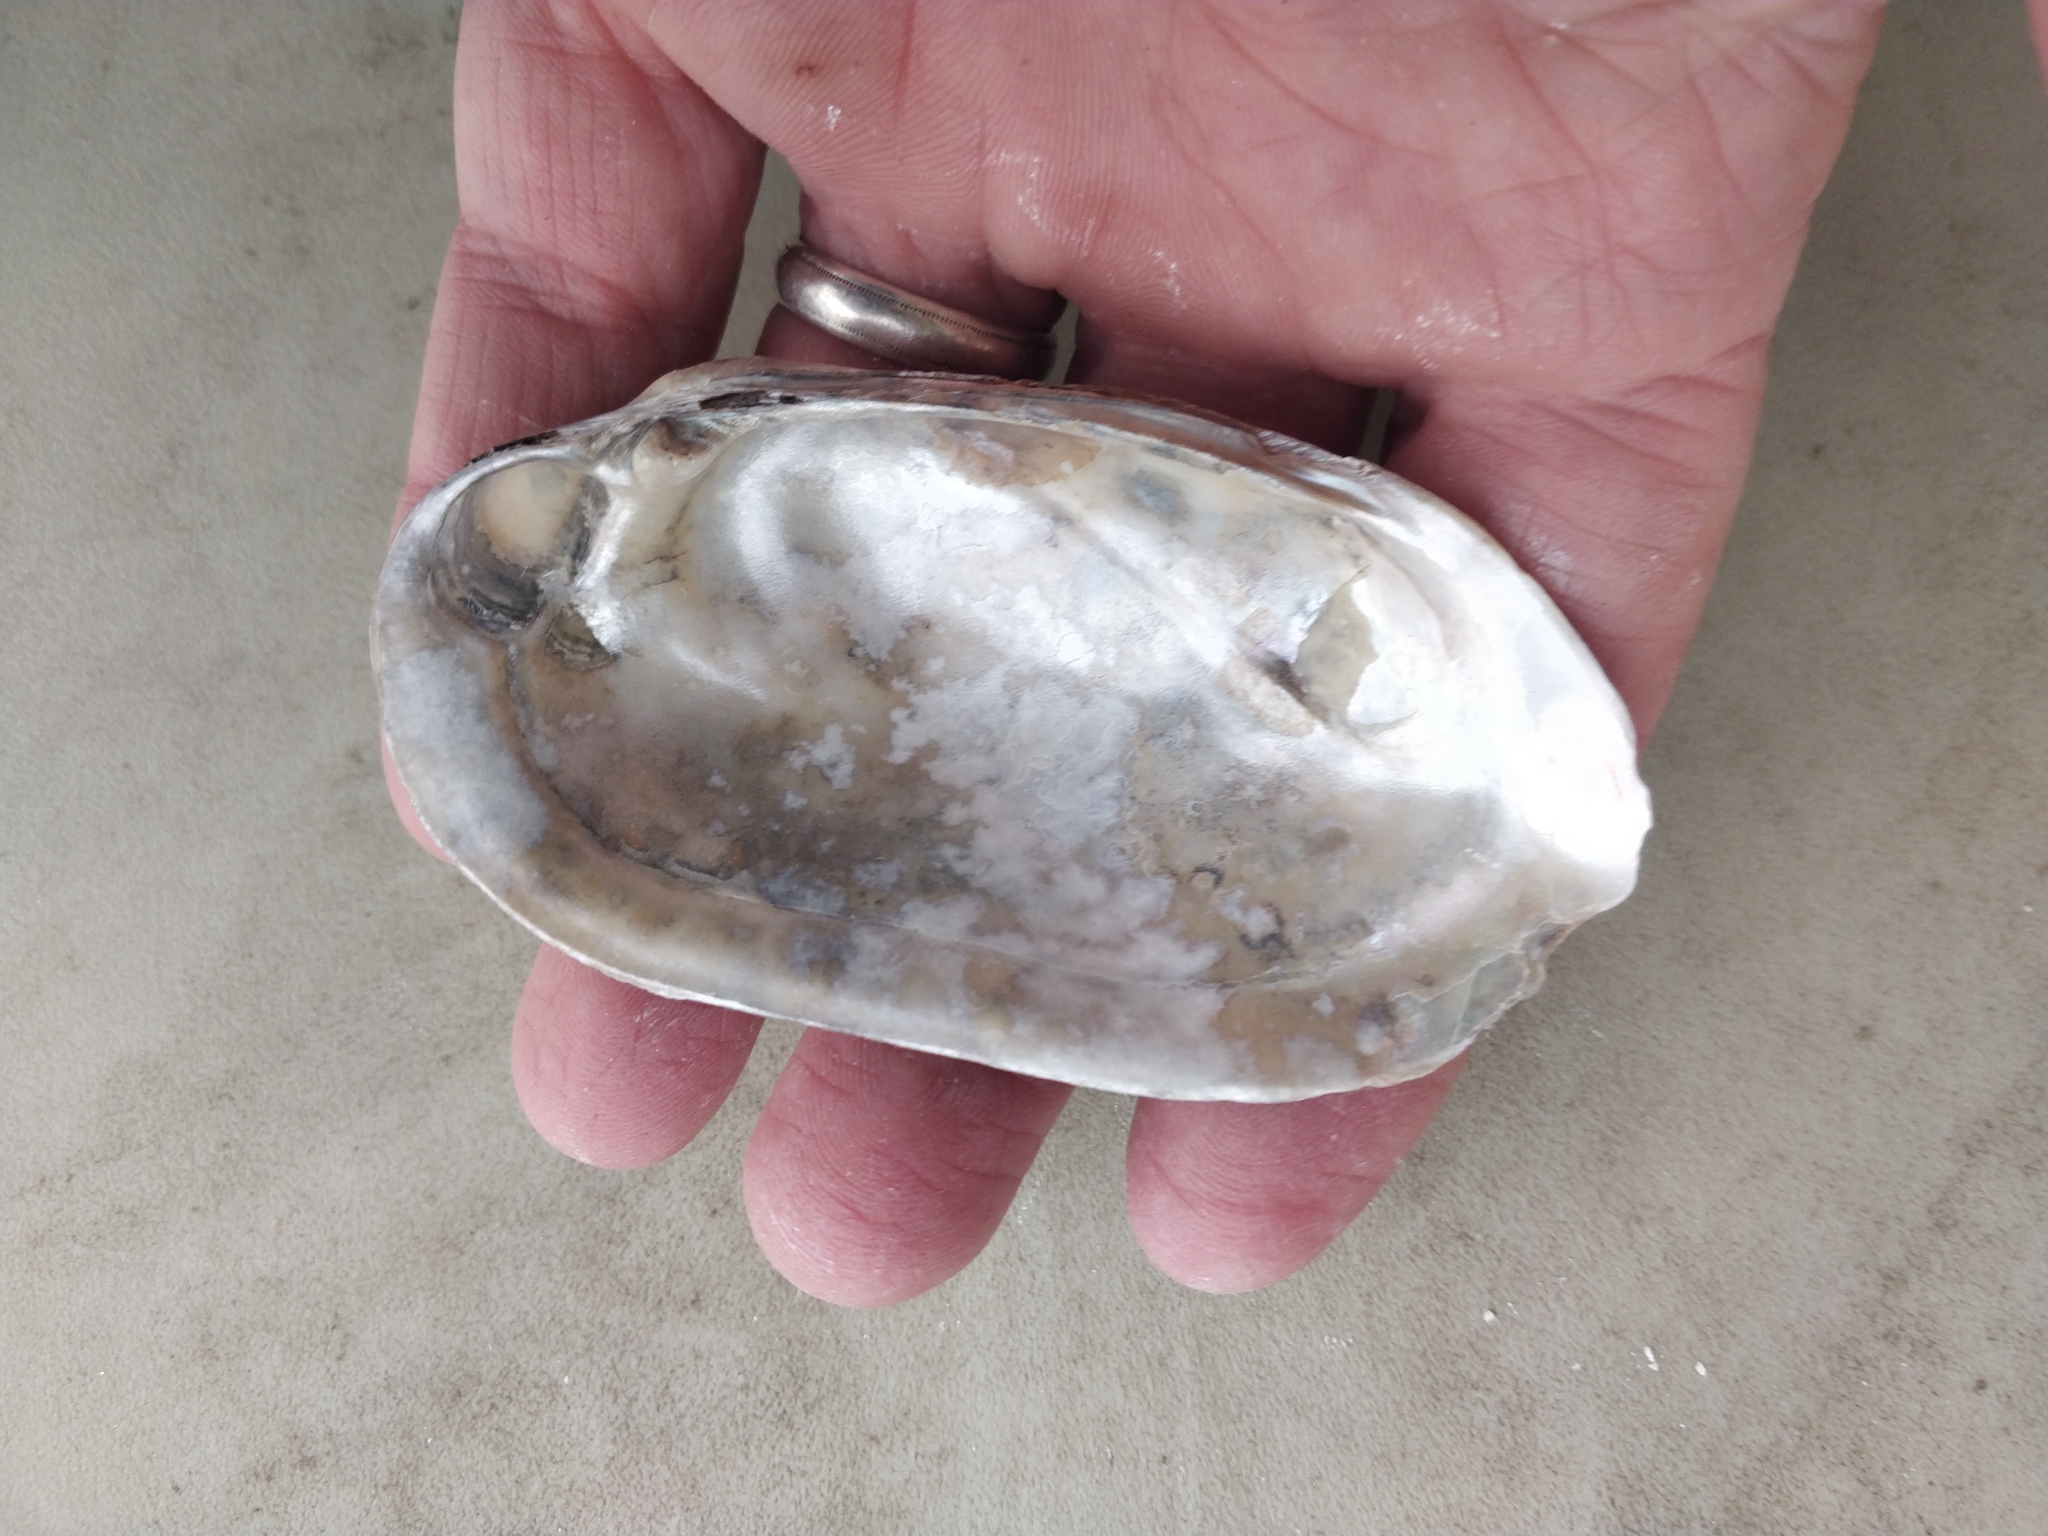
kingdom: Animalia
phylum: Mollusca
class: Bivalvia
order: Unionida
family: Unionidae
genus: Lampsilis
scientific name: Lampsilis siliquoidea
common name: Fatmucket
